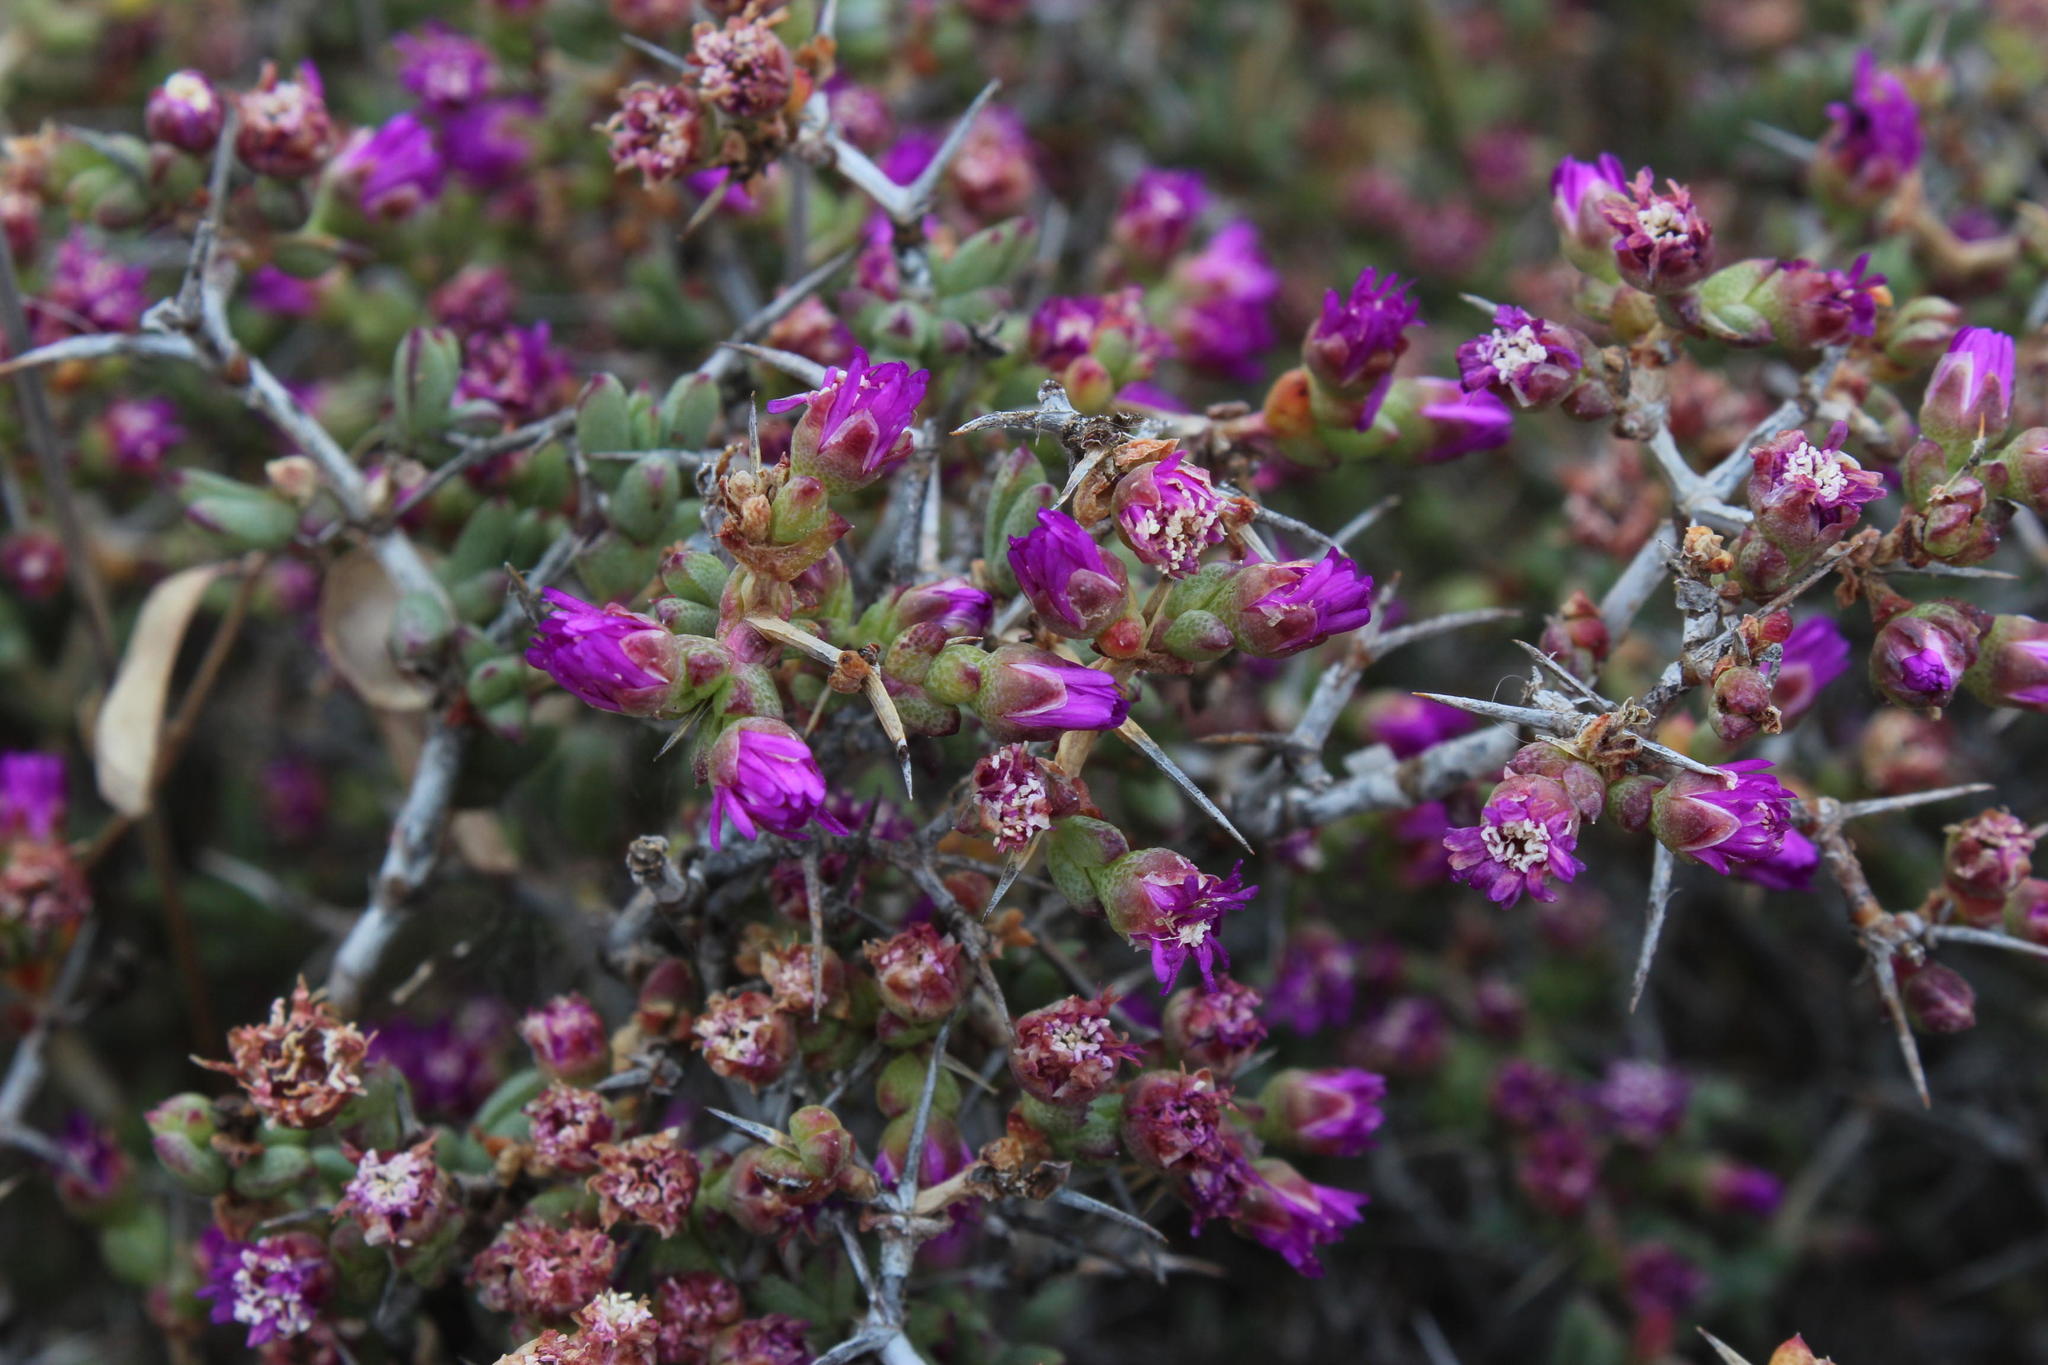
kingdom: Plantae
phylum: Tracheophyta
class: Magnoliopsida
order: Caryophyllales
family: Aizoaceae
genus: Ruschia
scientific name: Ruschia spinosa
